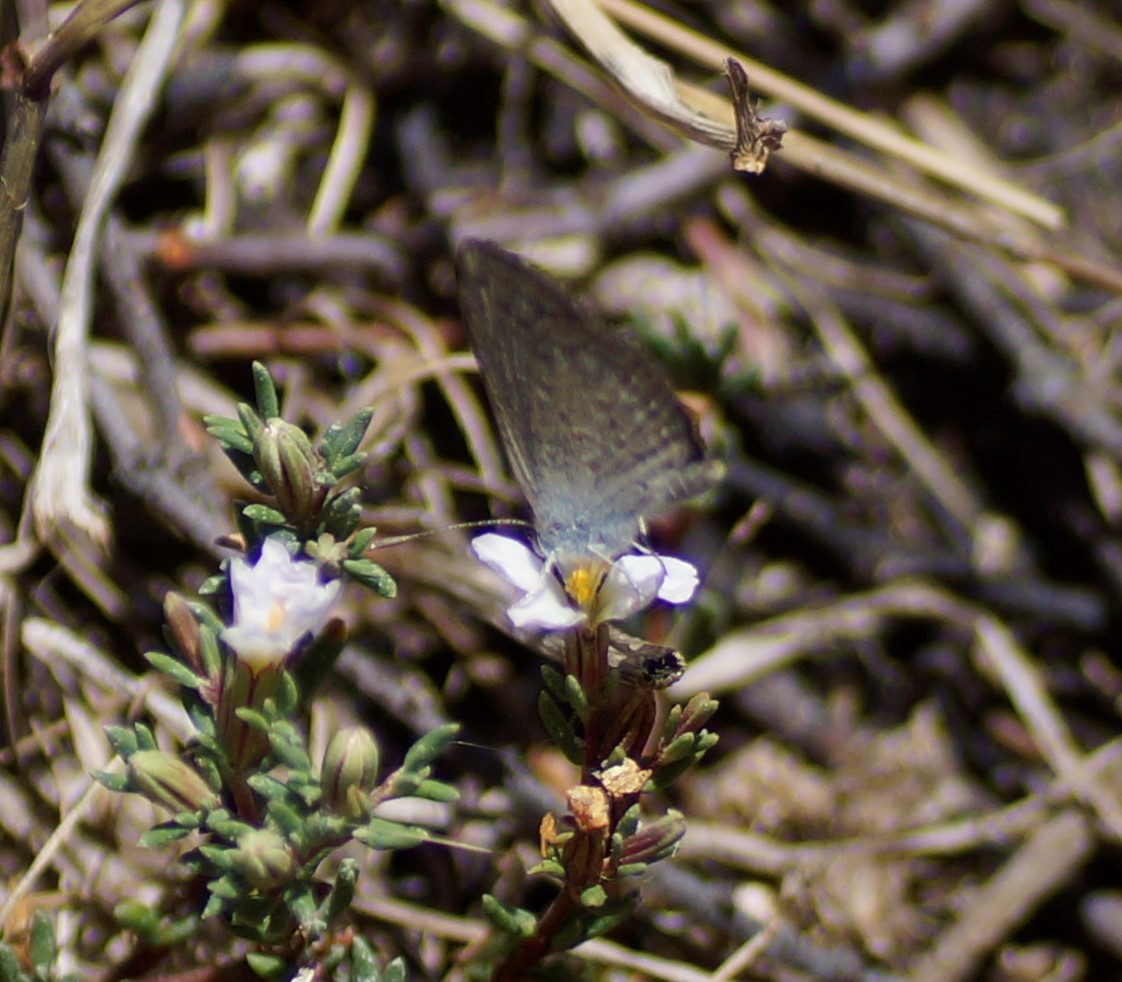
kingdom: Animalia
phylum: Arthropoda
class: Insecta
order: Lepidoptera
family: Lycaenidae
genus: Zizina
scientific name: Zizina otis
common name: Lesser grass blue
